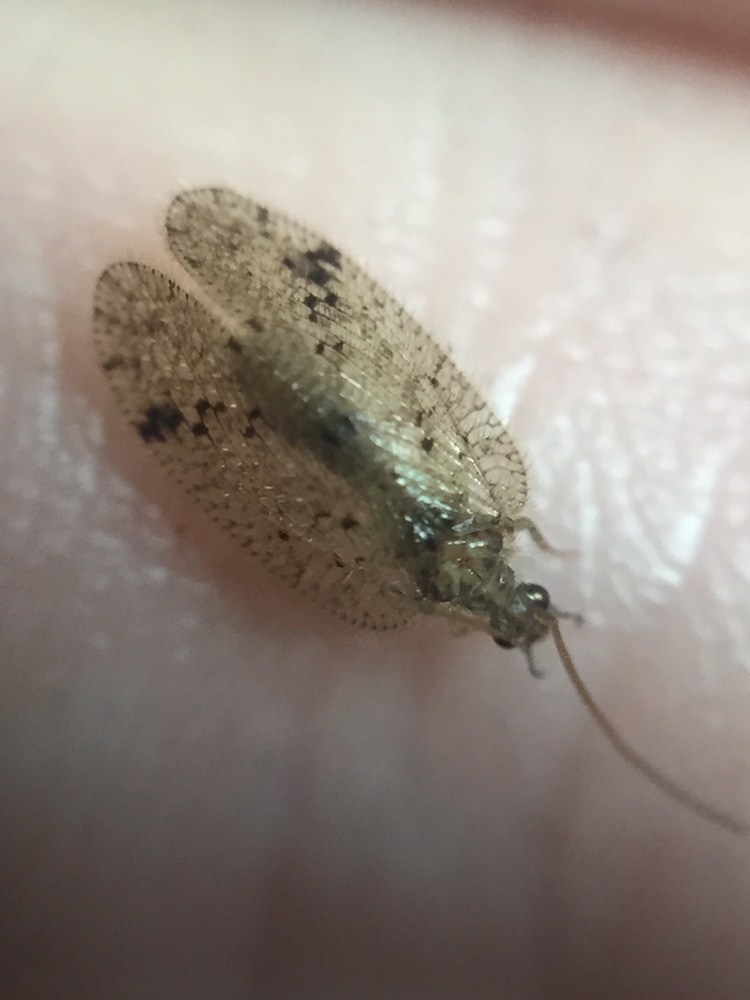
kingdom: Animalia
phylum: Arthropoda
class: Insecta
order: Neuroptera
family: Hemerobiidae
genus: Psectra
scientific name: Psectra nakaharai
